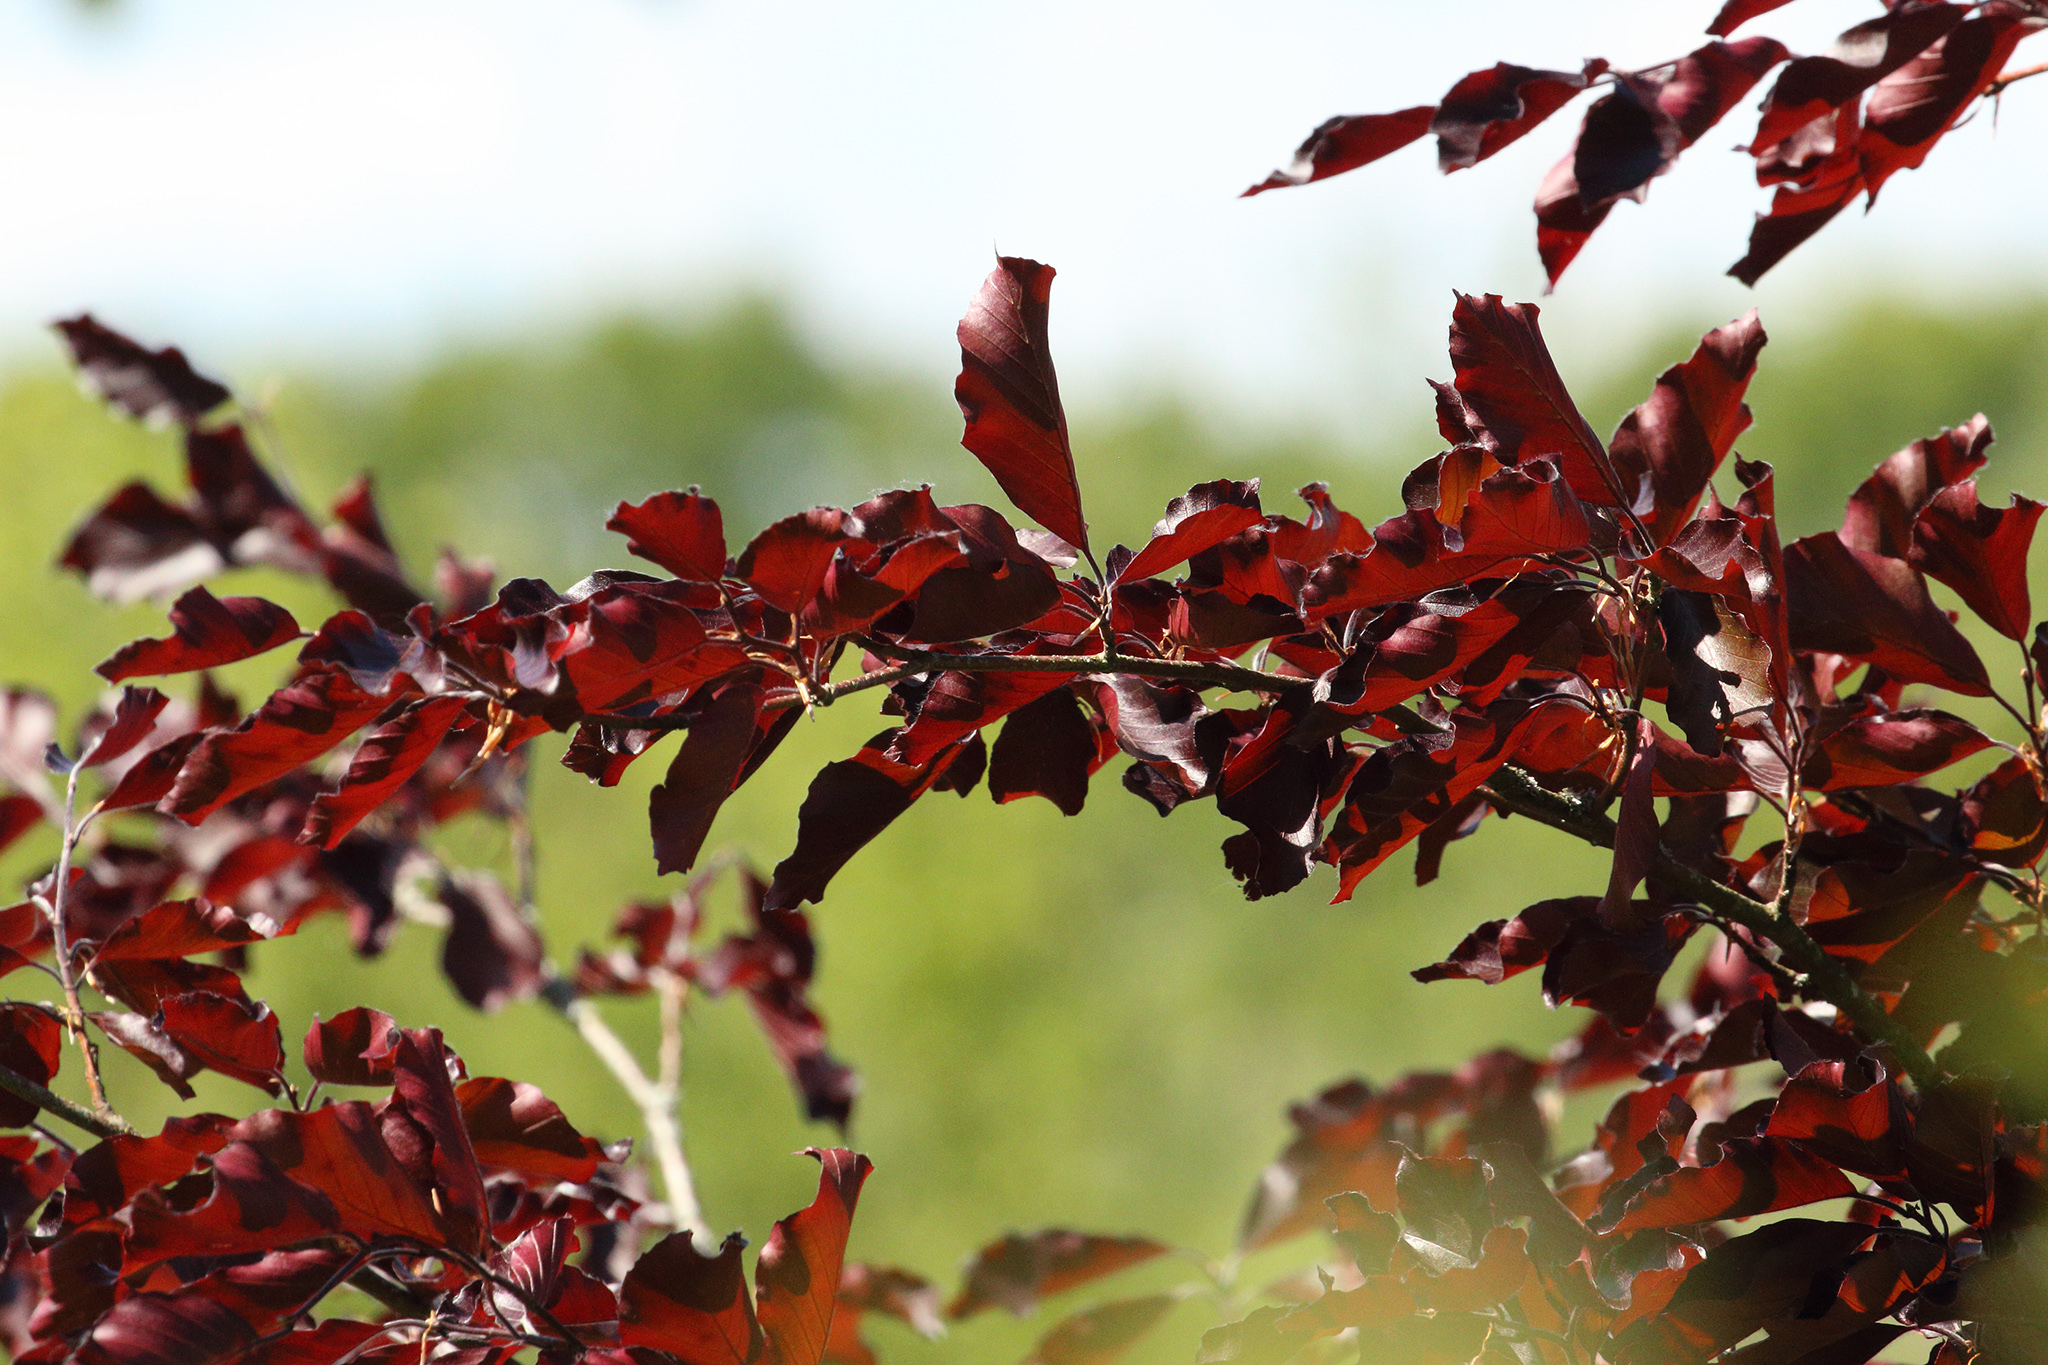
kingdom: Plantae
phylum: Tracheophyta
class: Magnoliopsida
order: Fagales
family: Fagaceae
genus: Fagus
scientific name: Fagus sylvatica
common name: Beech
